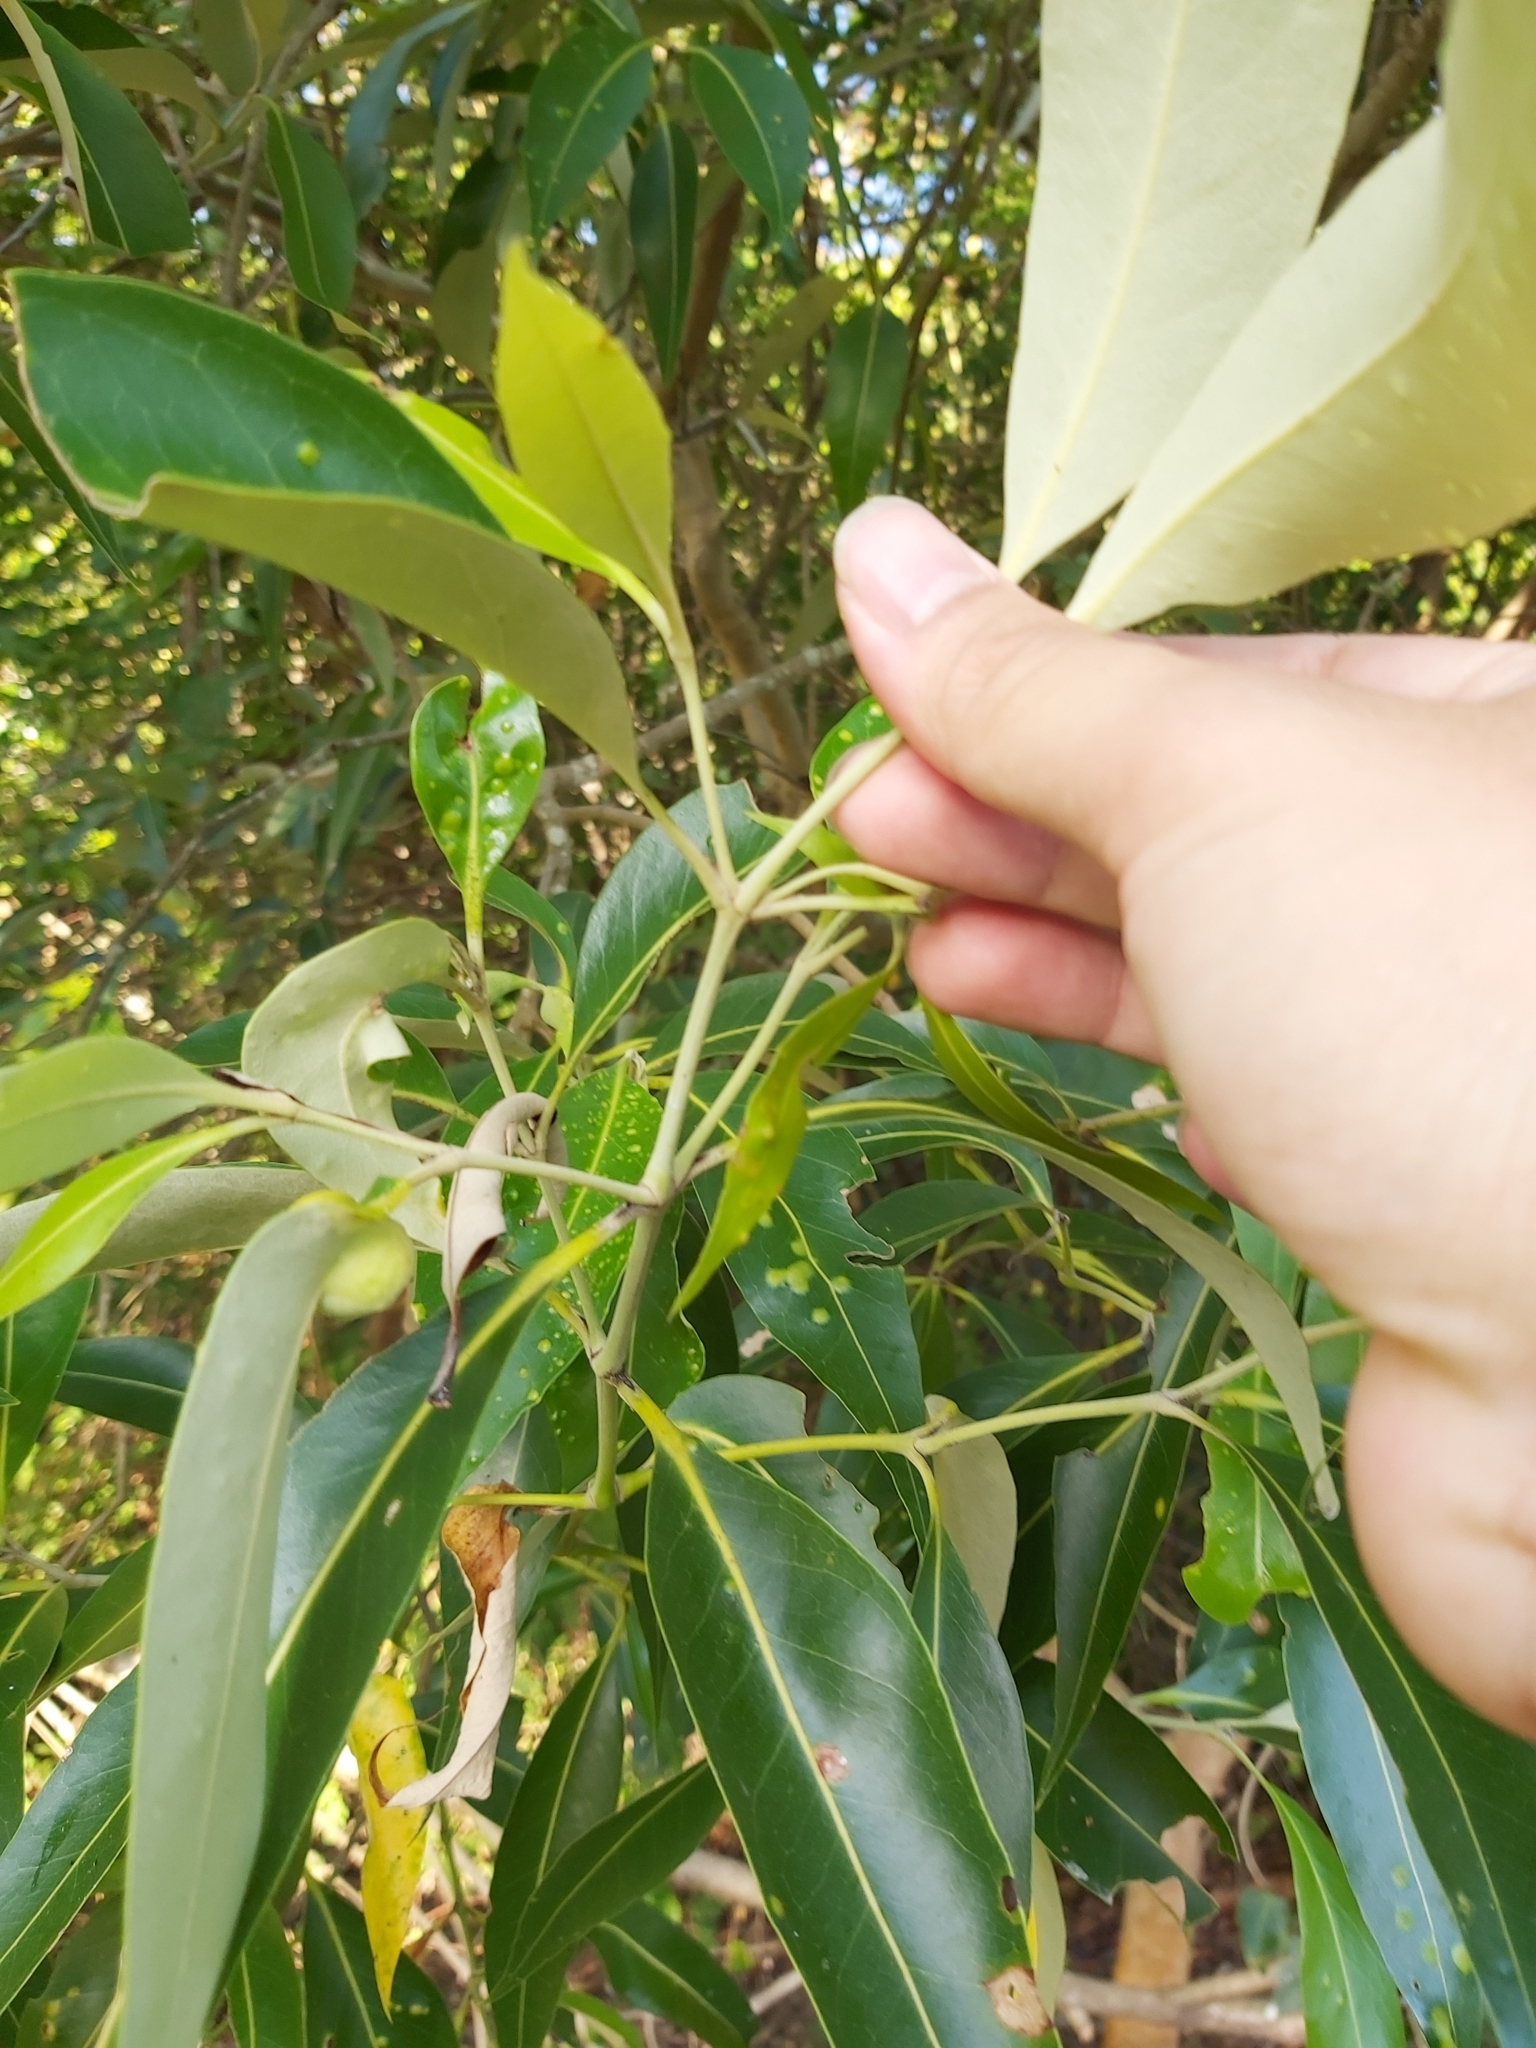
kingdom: Plantae
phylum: Tracheophyta
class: Magnoliopsida
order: Lamiales
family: Acanthaceae
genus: Avicennia
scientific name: Avicennia marina
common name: Gray mangrove
